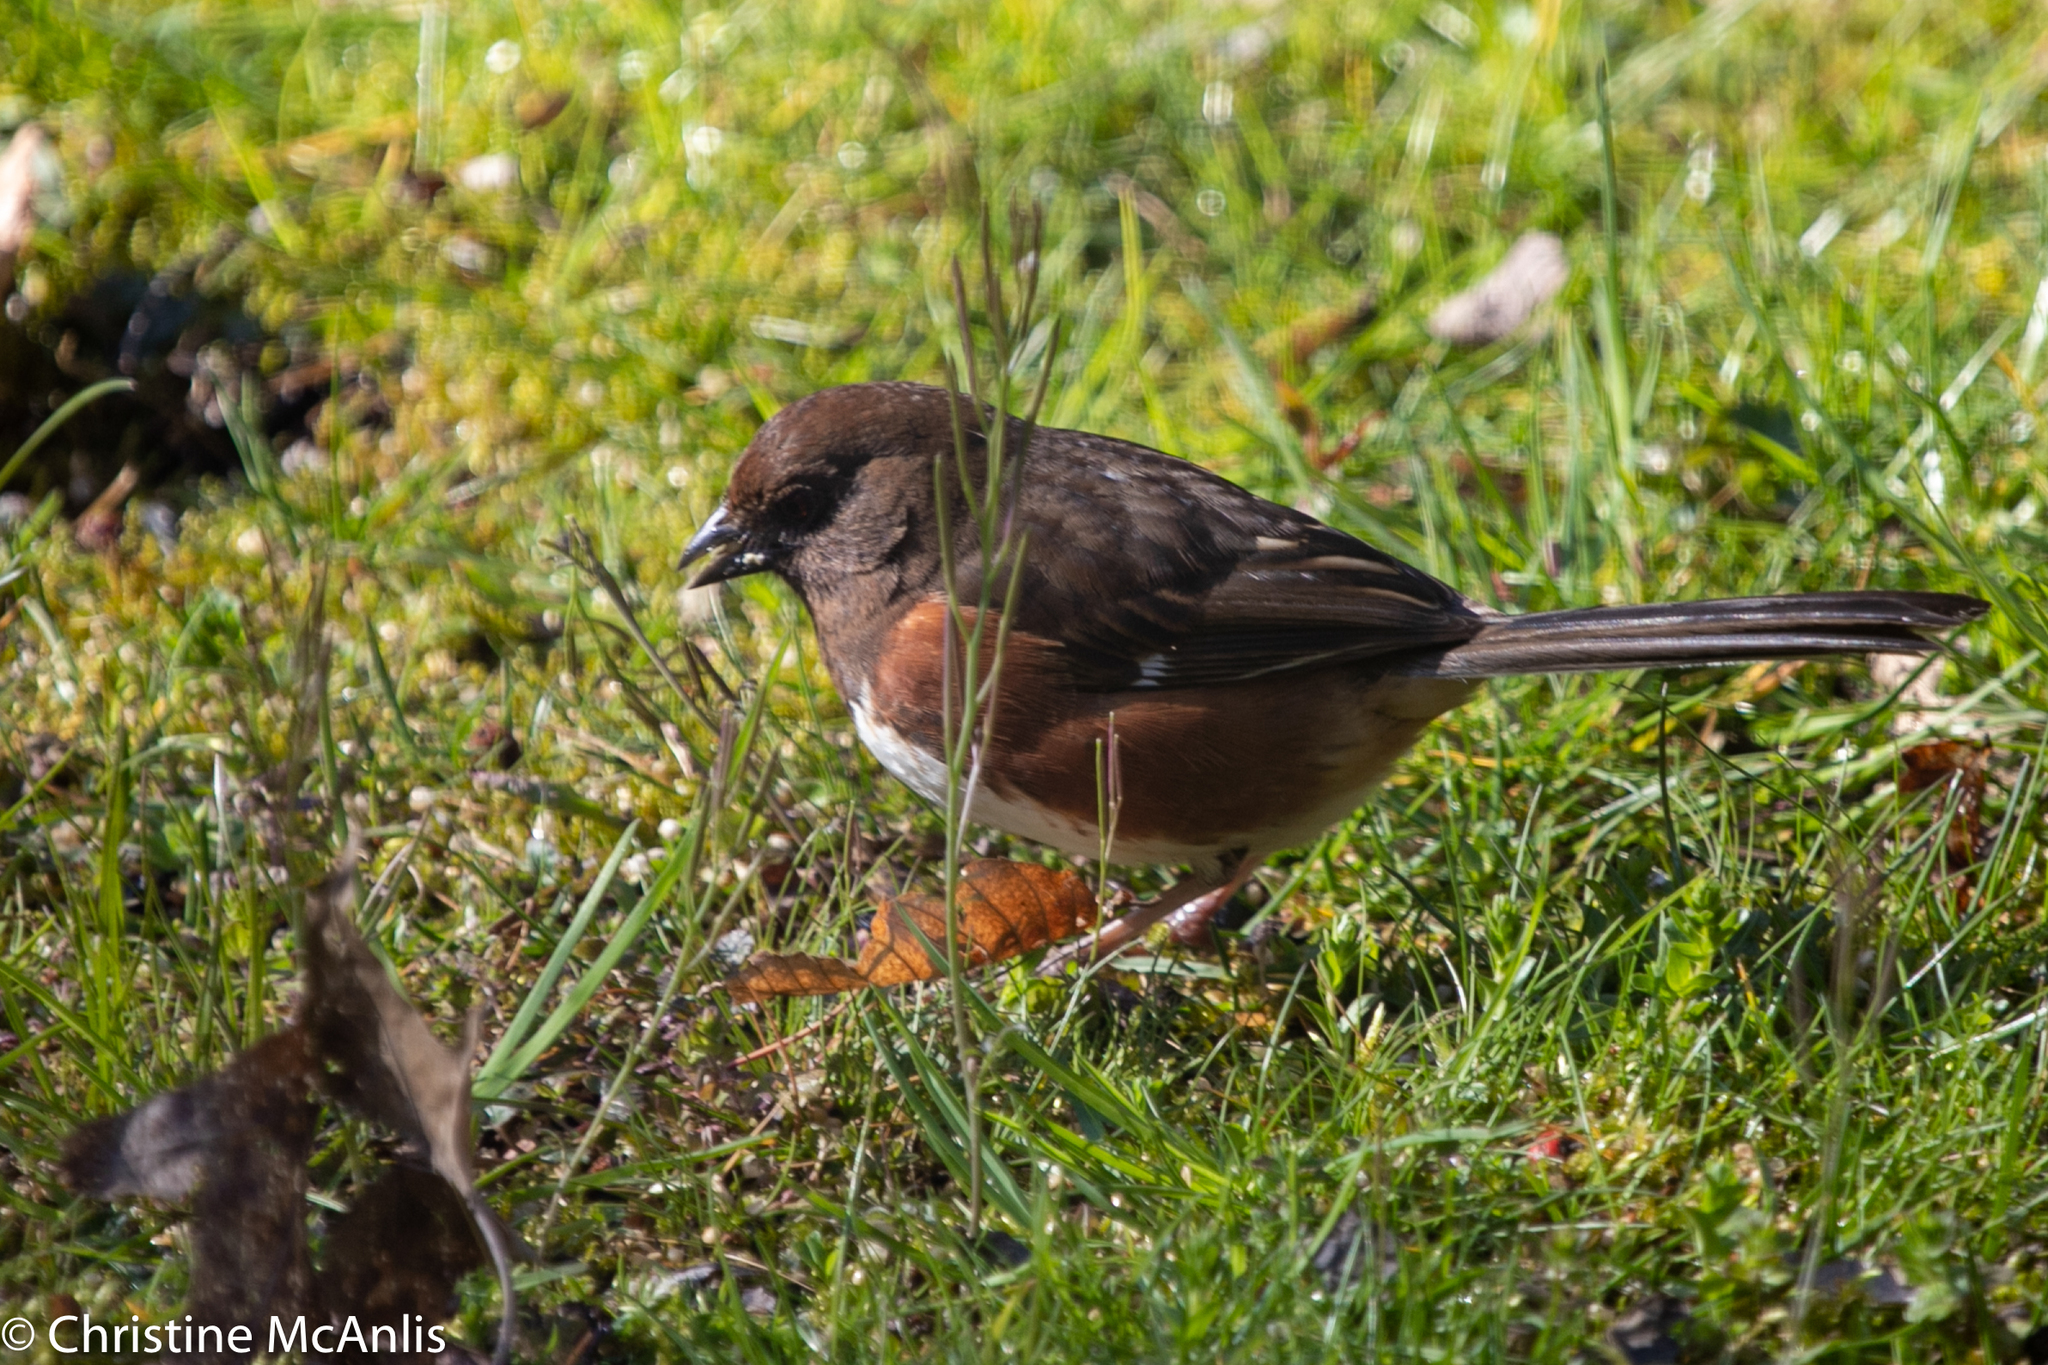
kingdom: Animalia
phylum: Chordata
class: Aves
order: Passeriformes
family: Passerellidae
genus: Pipilo
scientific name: Pipilo erythrophthalmus
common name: Eastern towhee
